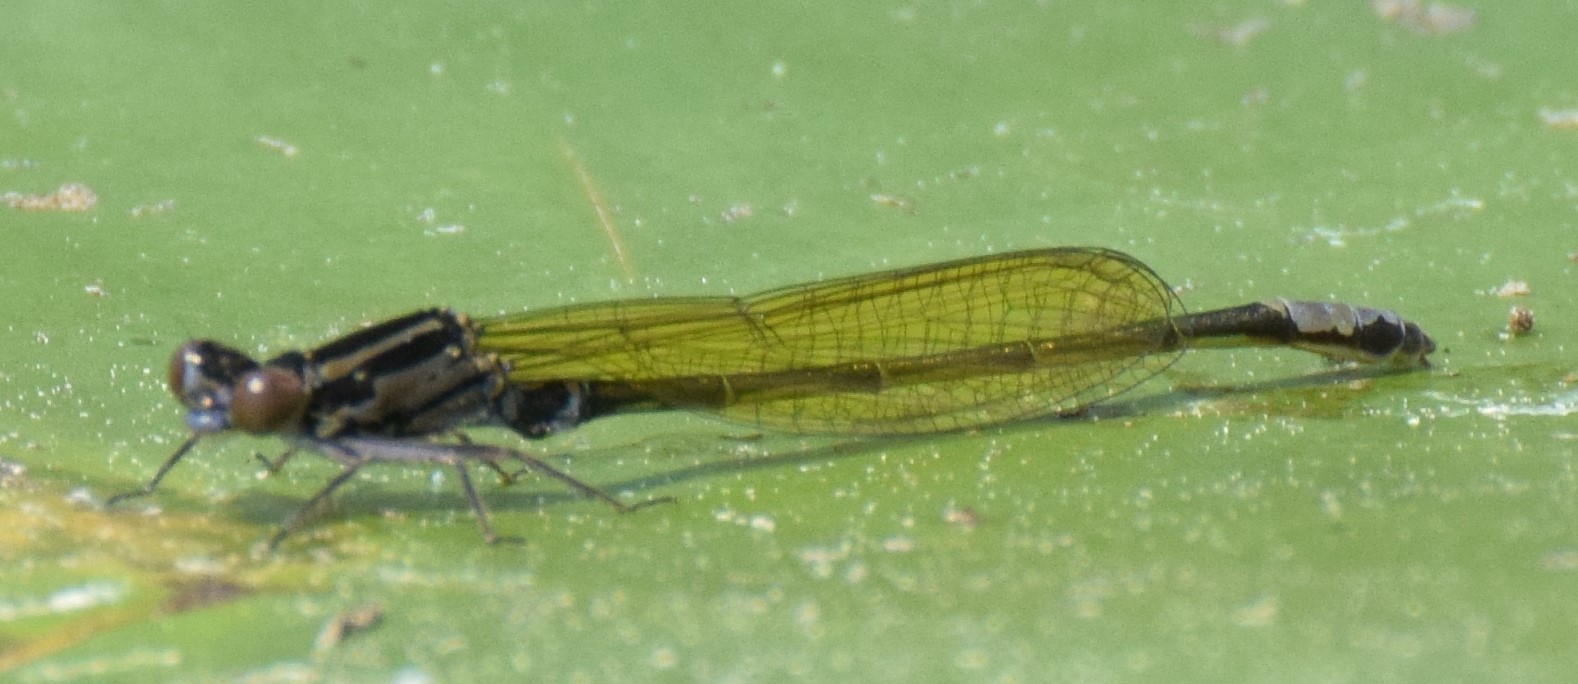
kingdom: Animalia
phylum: Arthropoda
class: Insecta
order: Odonata
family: Coenagrionidae
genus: Ischnura
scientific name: Ischnura kellicotti
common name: Lilypad forktail
